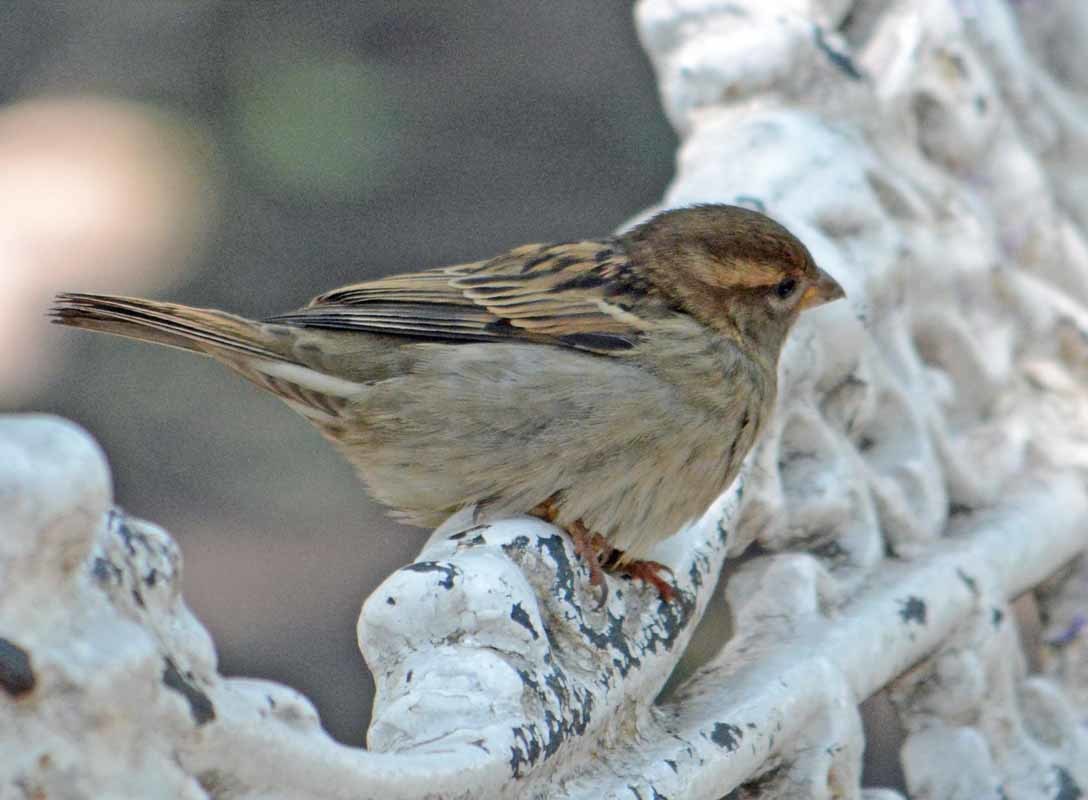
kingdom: Animalia
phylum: Chordata
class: Aves
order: Passeriformes
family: Passeridae
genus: Passer
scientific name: Passer domesticus
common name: House sparrow
